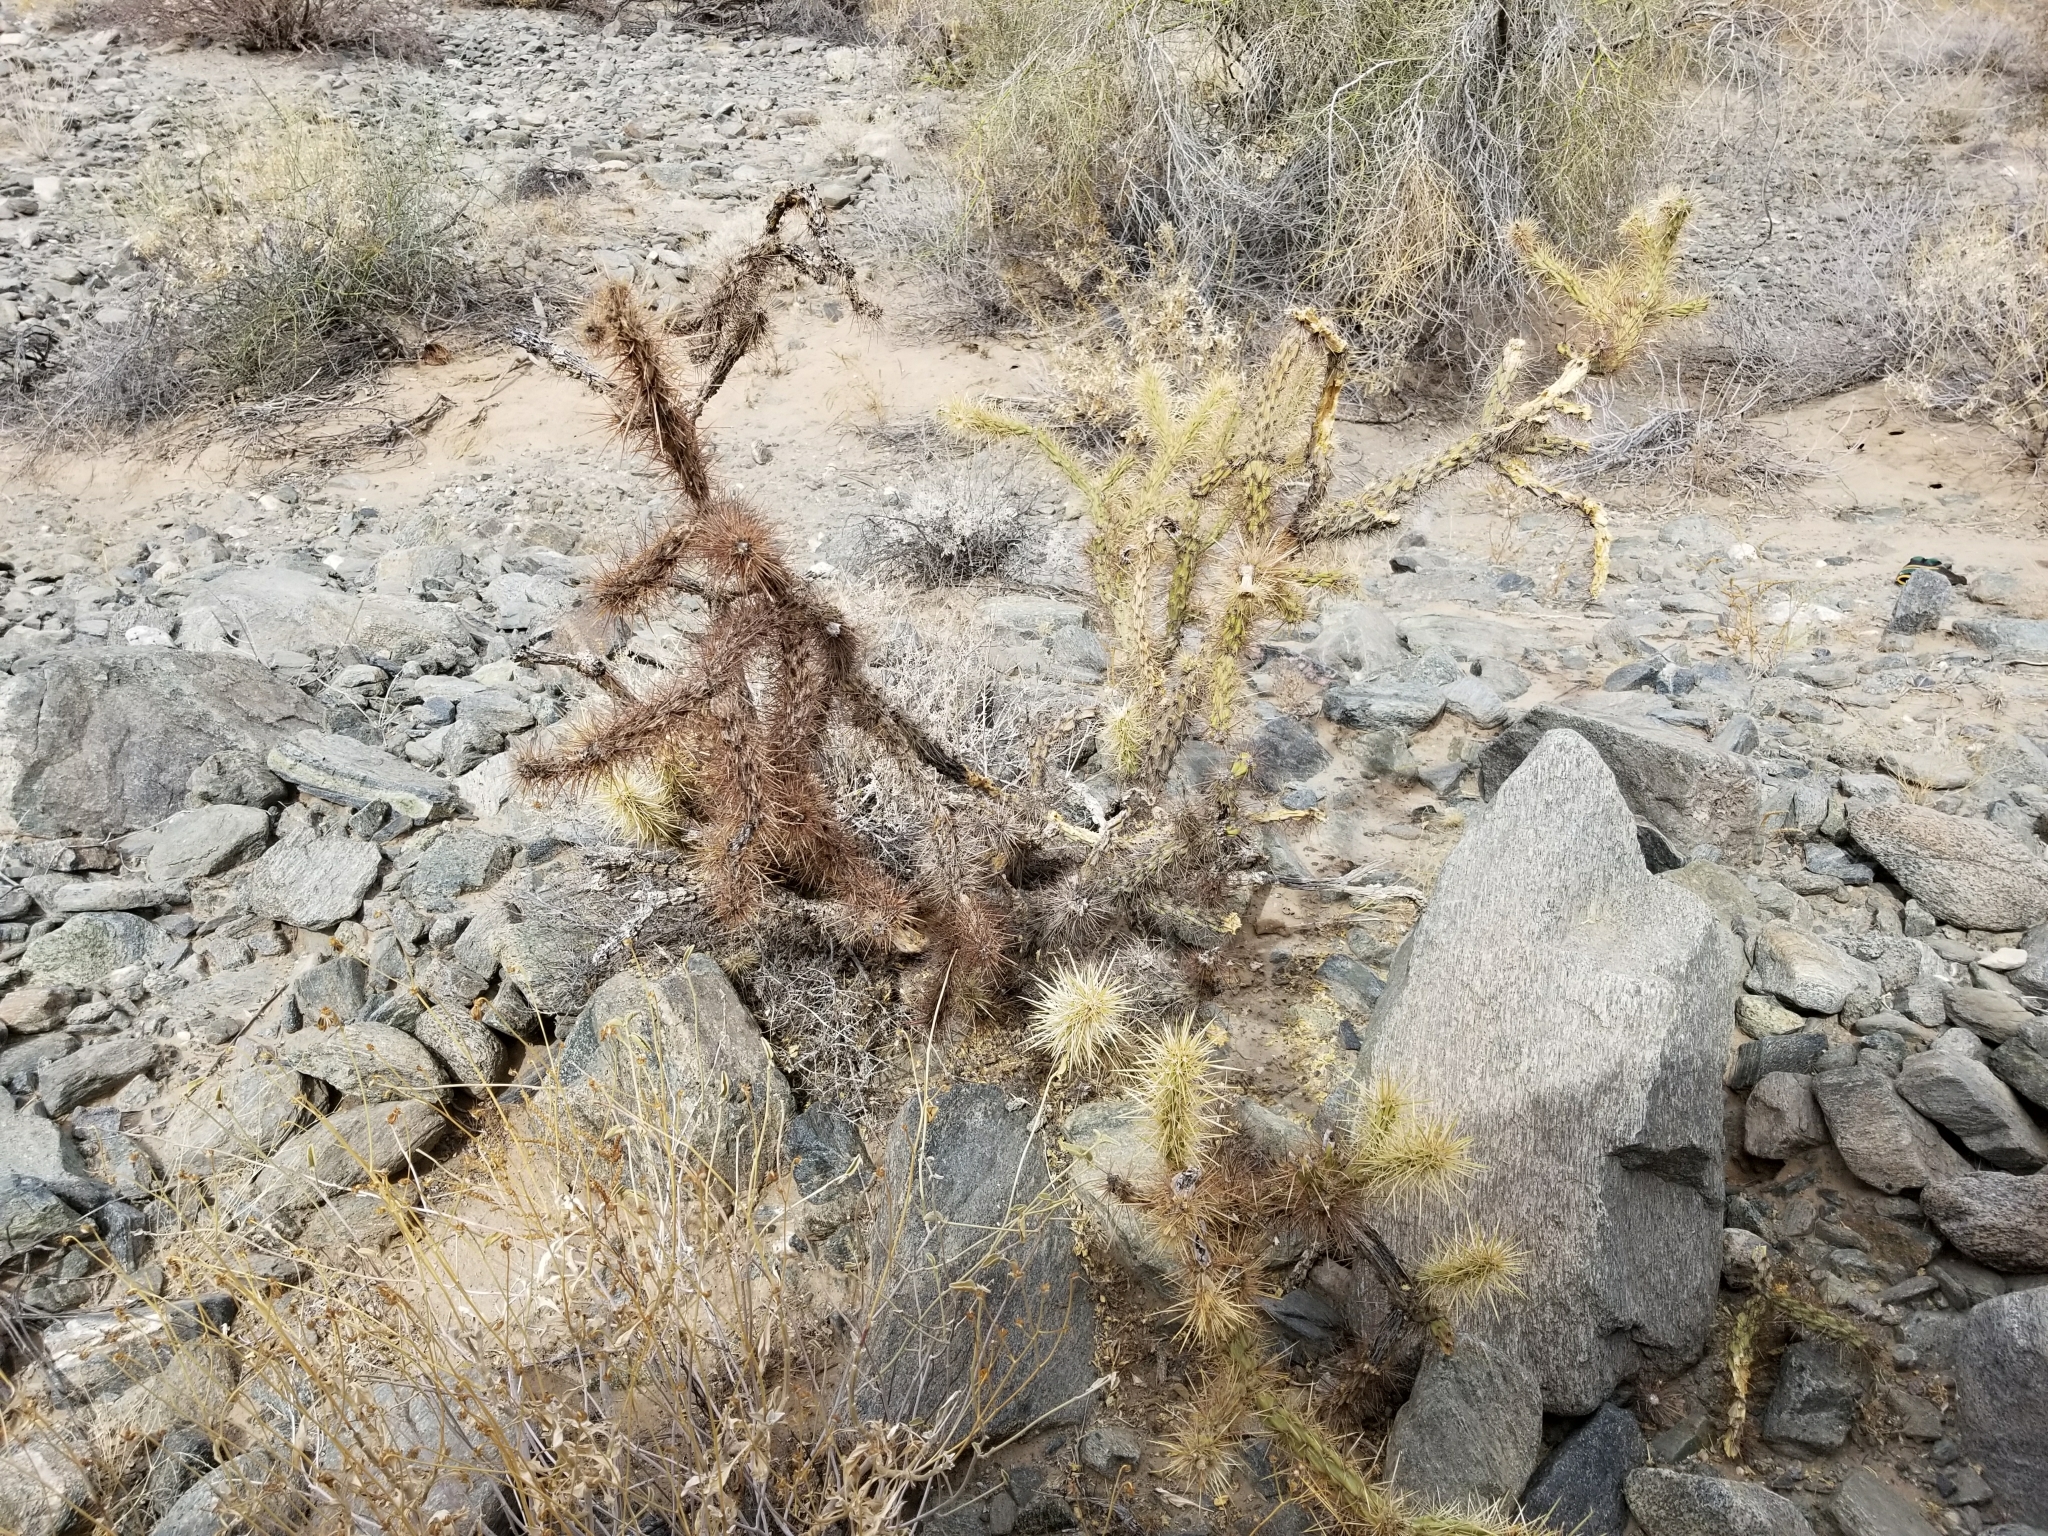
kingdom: Plantae
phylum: Tracheophyta
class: Magnoliopsida
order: Caryophyllales
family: Cactaceae
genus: Cylindropuntia
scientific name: Cylindropuntia acanthocarpa
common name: Buckhorn cholla
